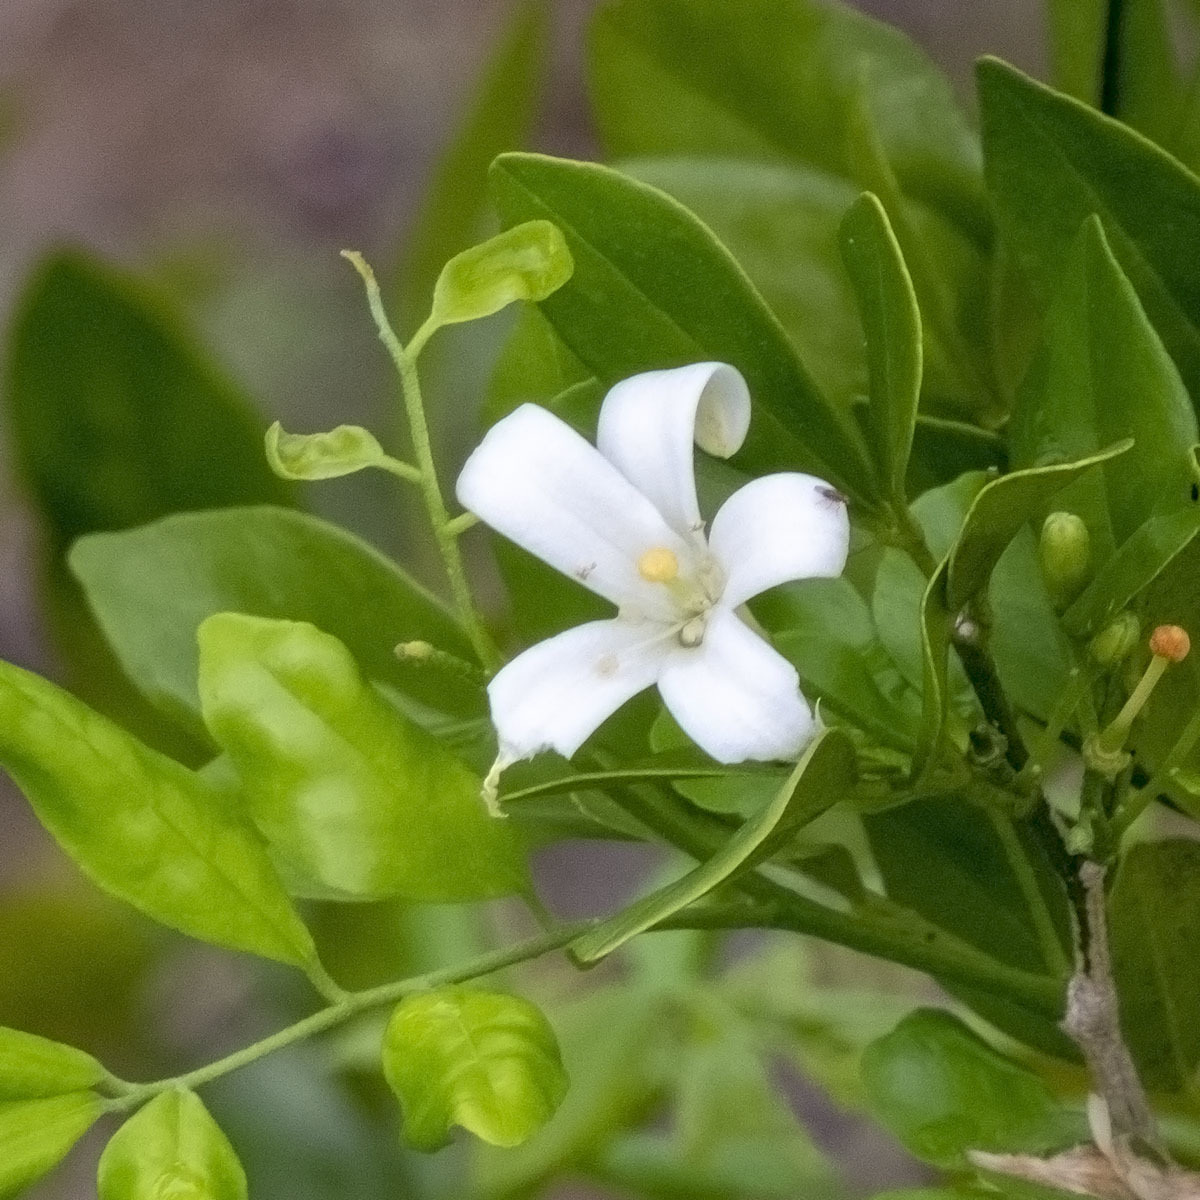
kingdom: Plantae
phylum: Tracheophyta
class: Magnoliopsida
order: Sapindales
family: Rutaceae
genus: Murraya
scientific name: Murraya paniculata
